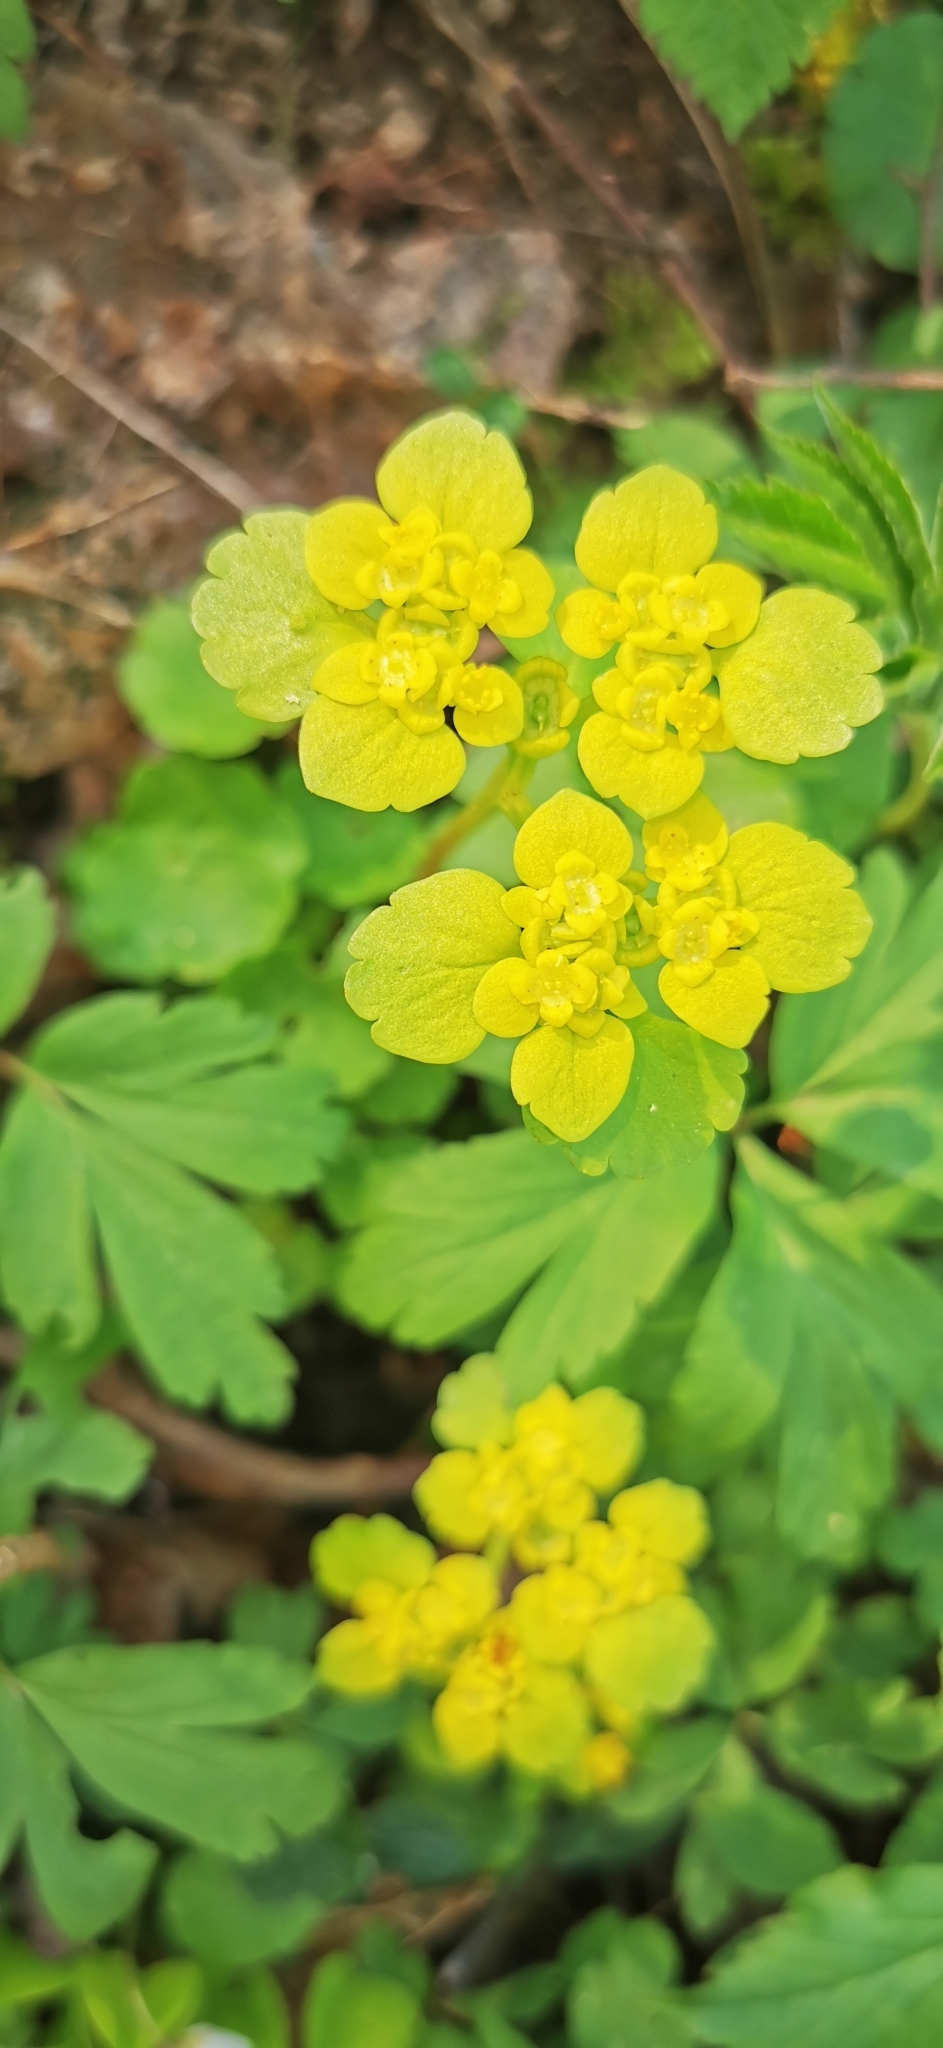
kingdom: Plantae
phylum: Tracheophyta
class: Magnoliopsida
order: Saxifragales
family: Saxifragaceae
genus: Chrysosplenium
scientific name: Chrysosplenium alternifolium
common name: Alternate-leaved golden-saxifrage
